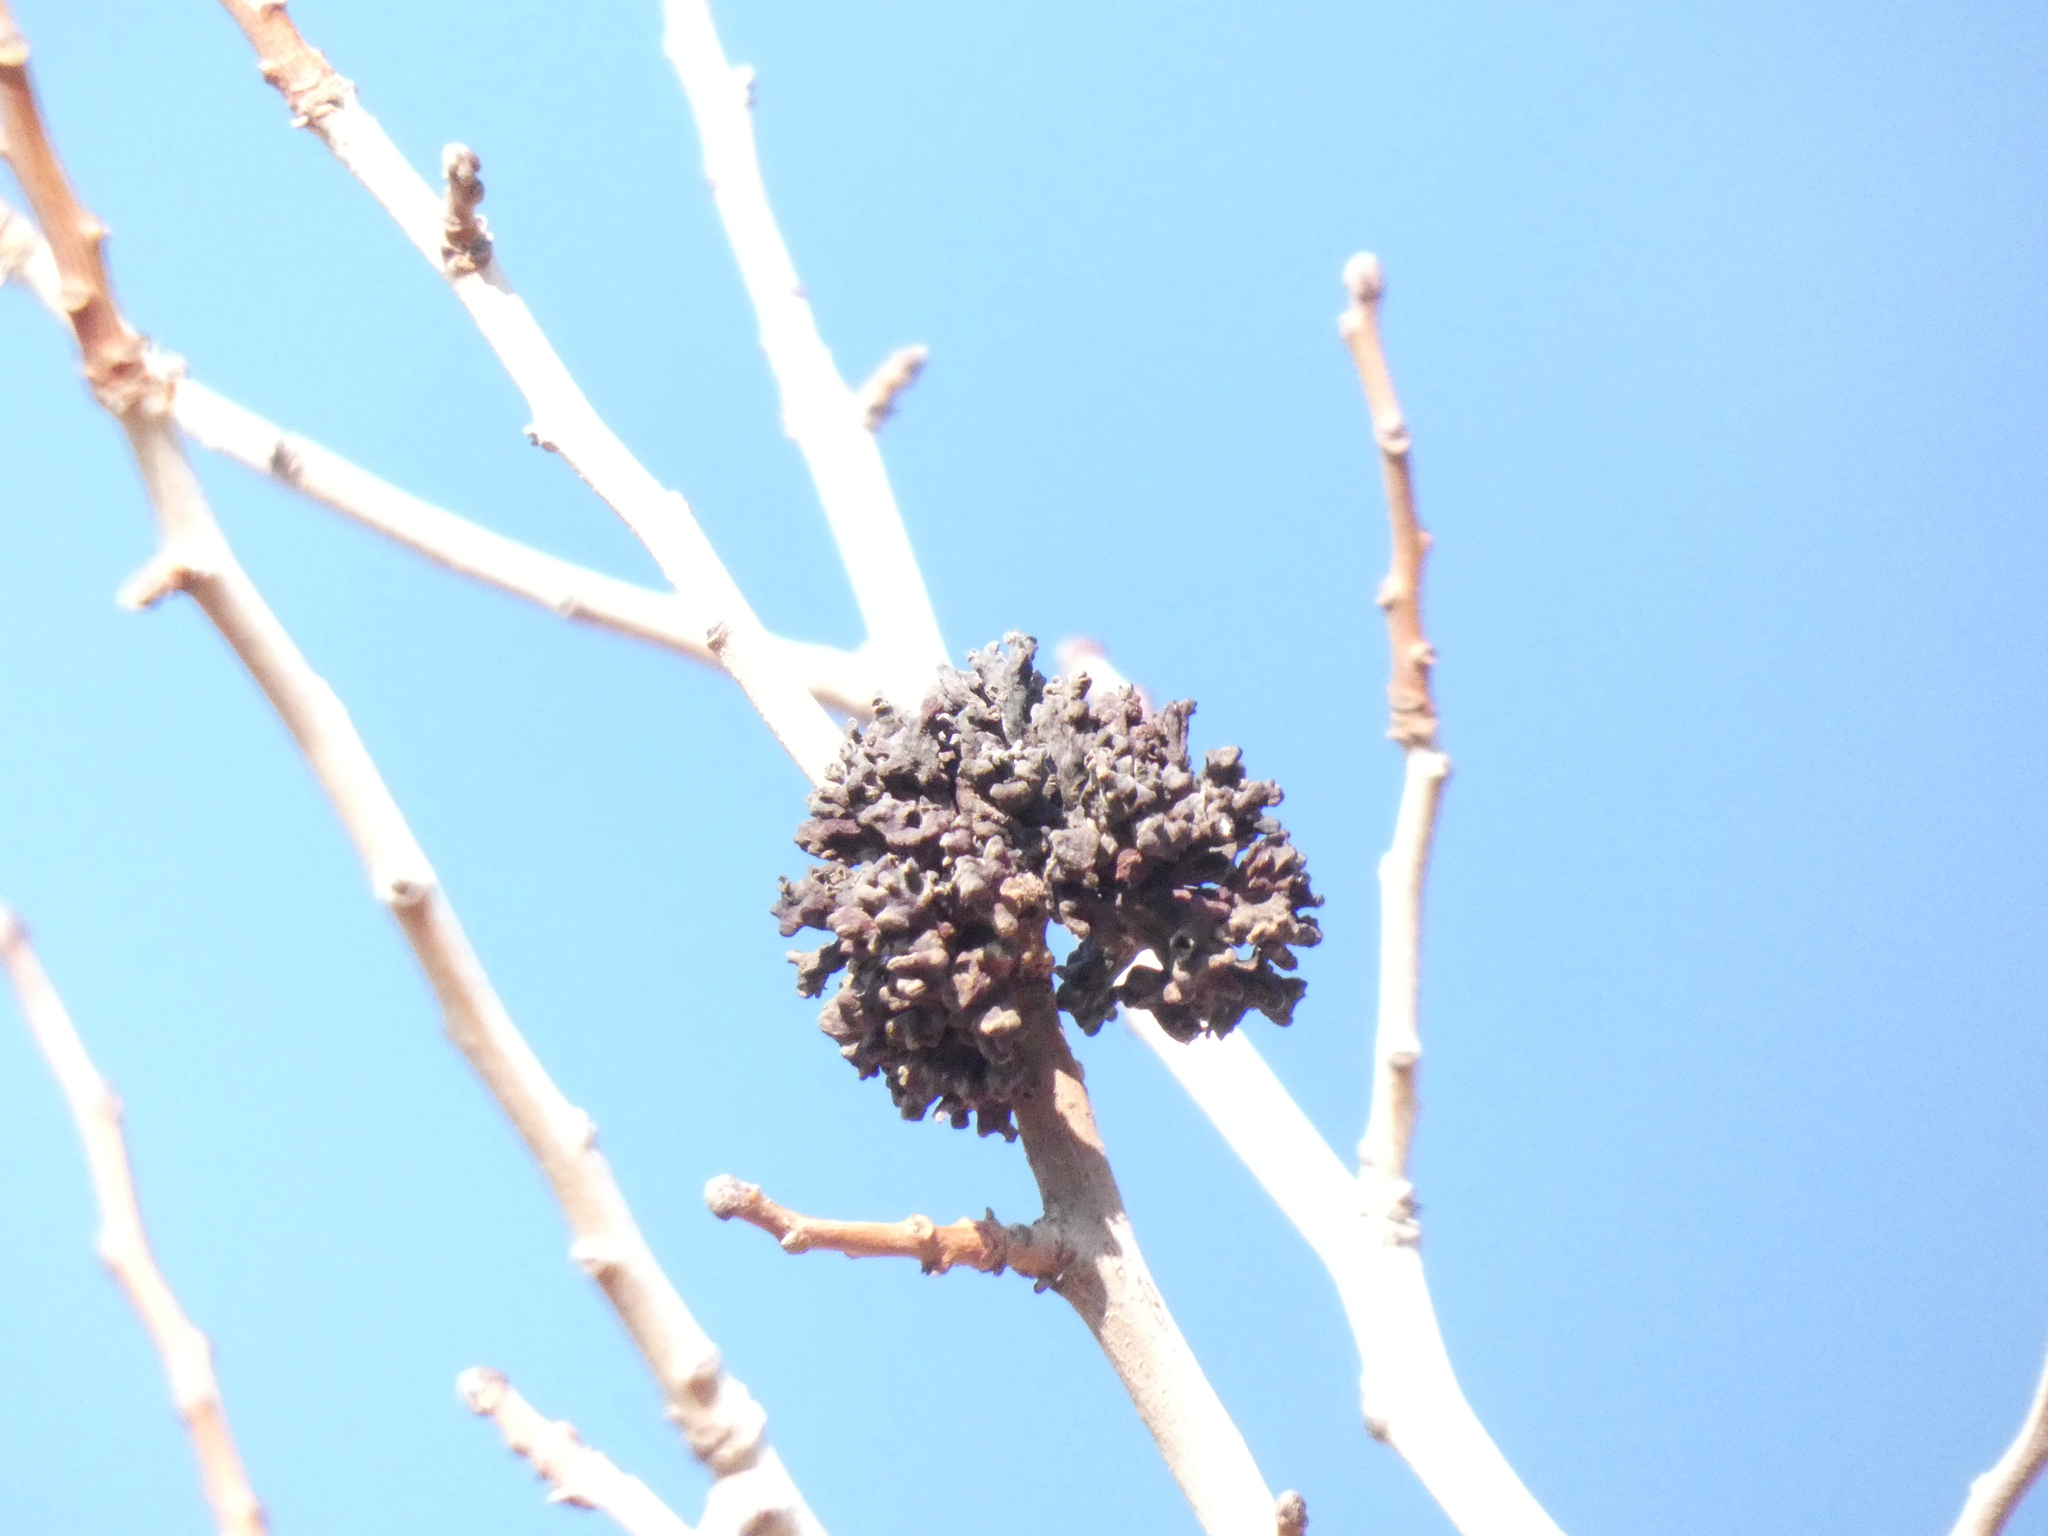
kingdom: Animalia
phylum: Arthropoda
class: Insecta
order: Hemiptera
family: Aphididae
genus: Slavum
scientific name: Slavum wertheimae
